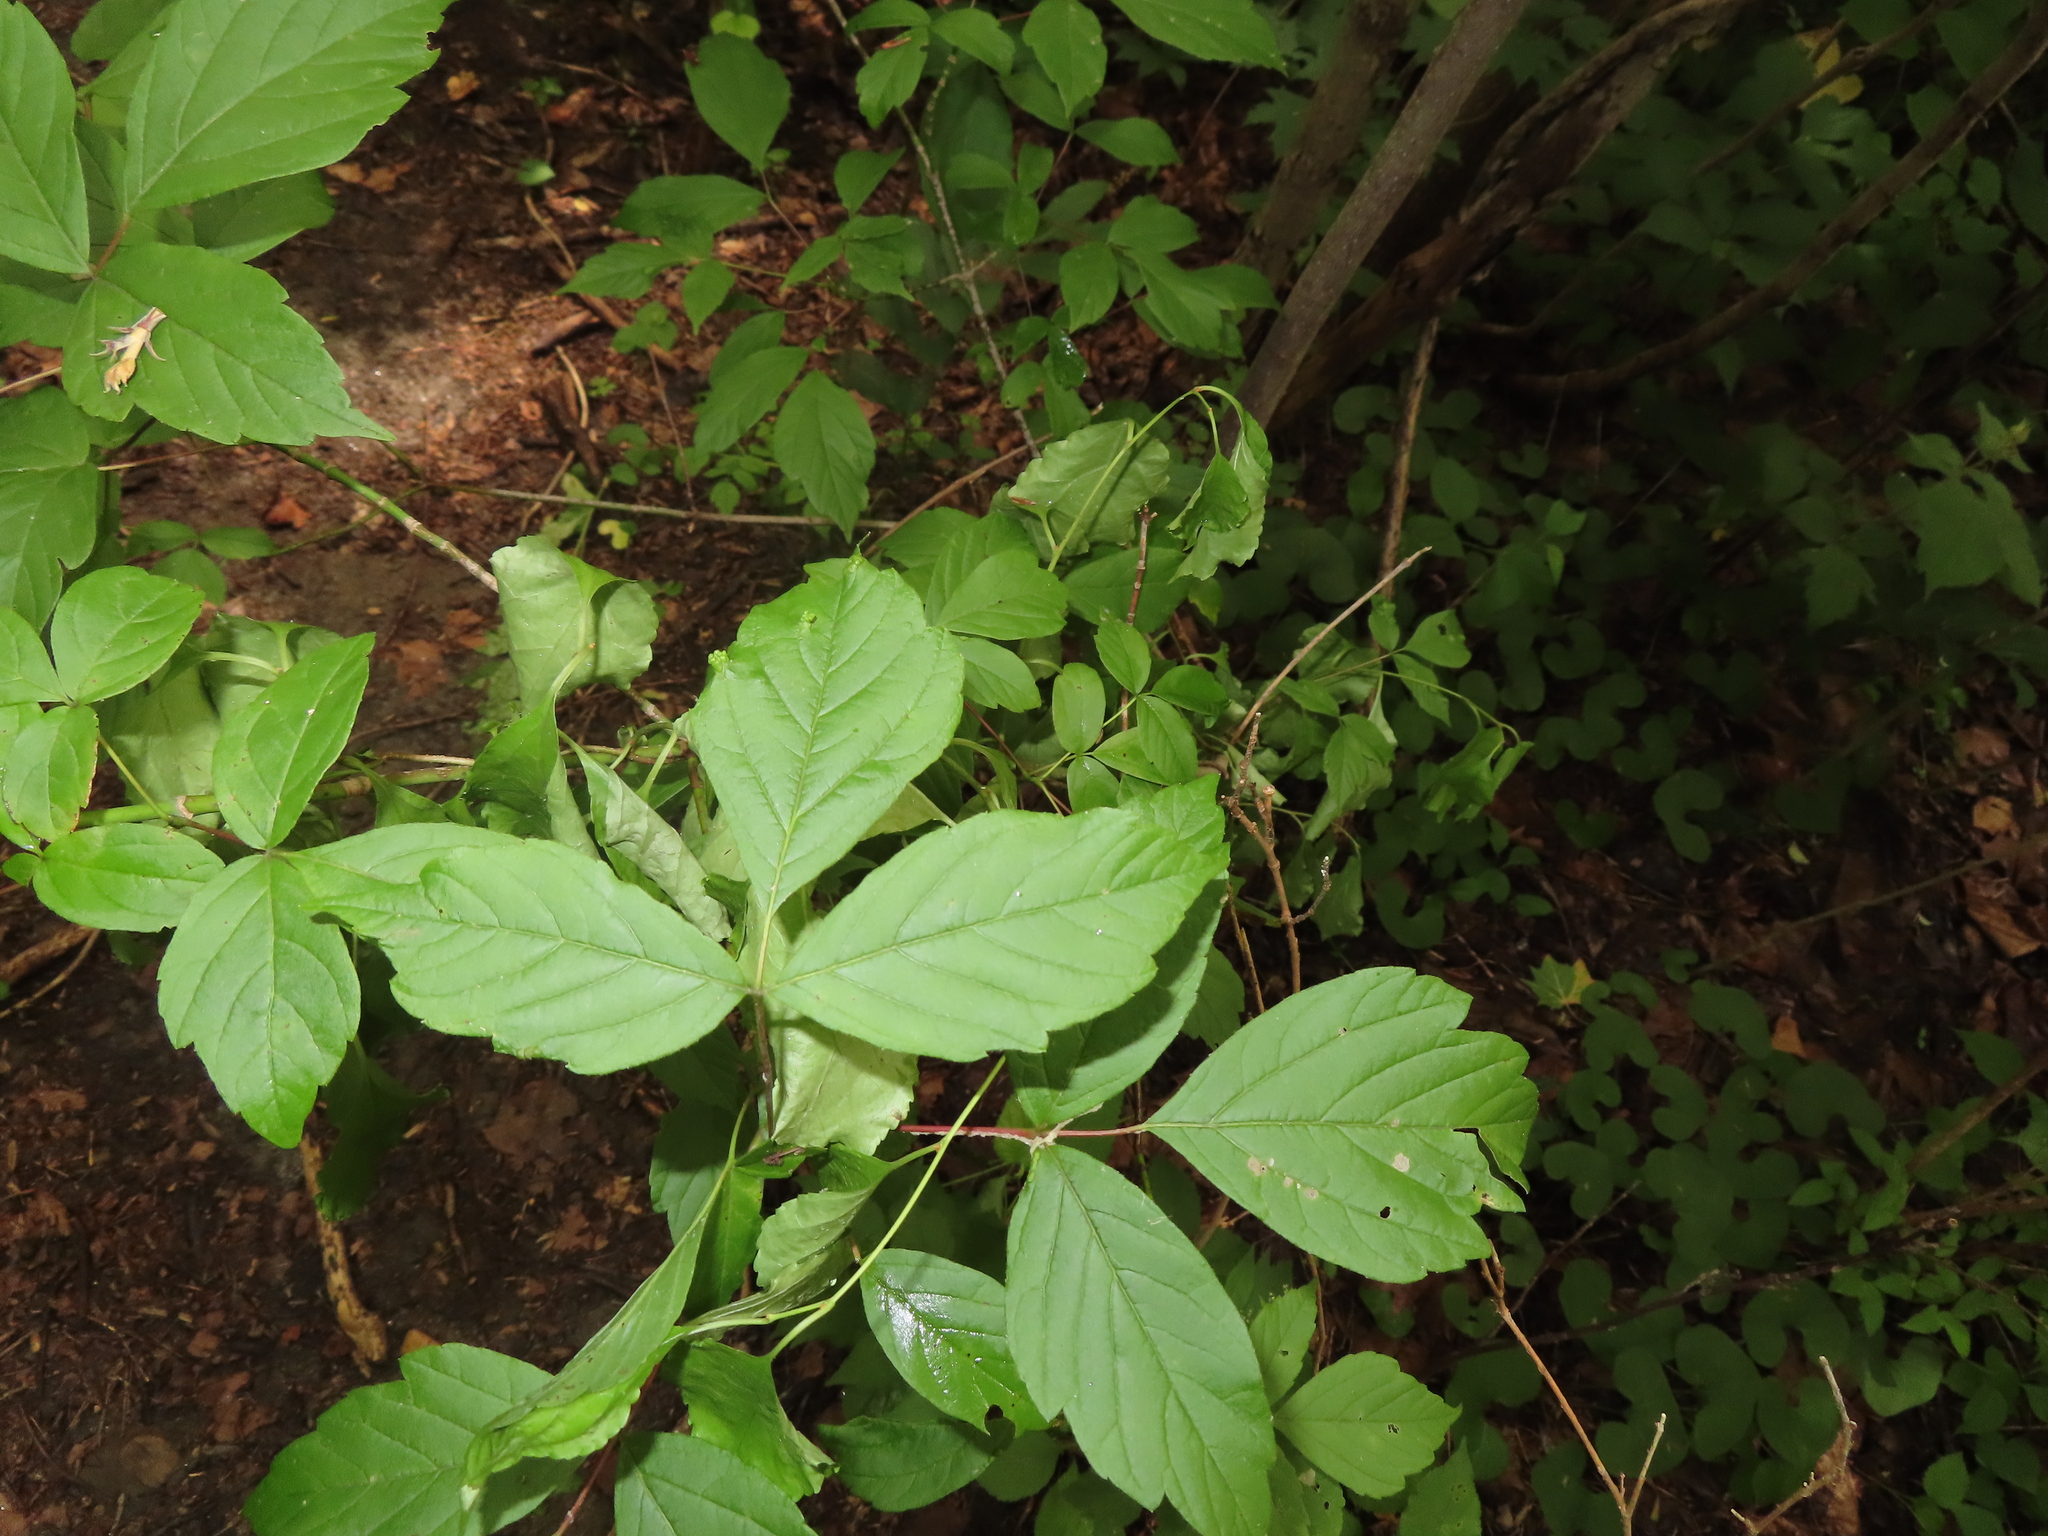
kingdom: Animalia
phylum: Arthropoda
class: Arachnida
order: Trombidiformes
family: Eriophyidae
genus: Aceria
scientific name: Aceria
